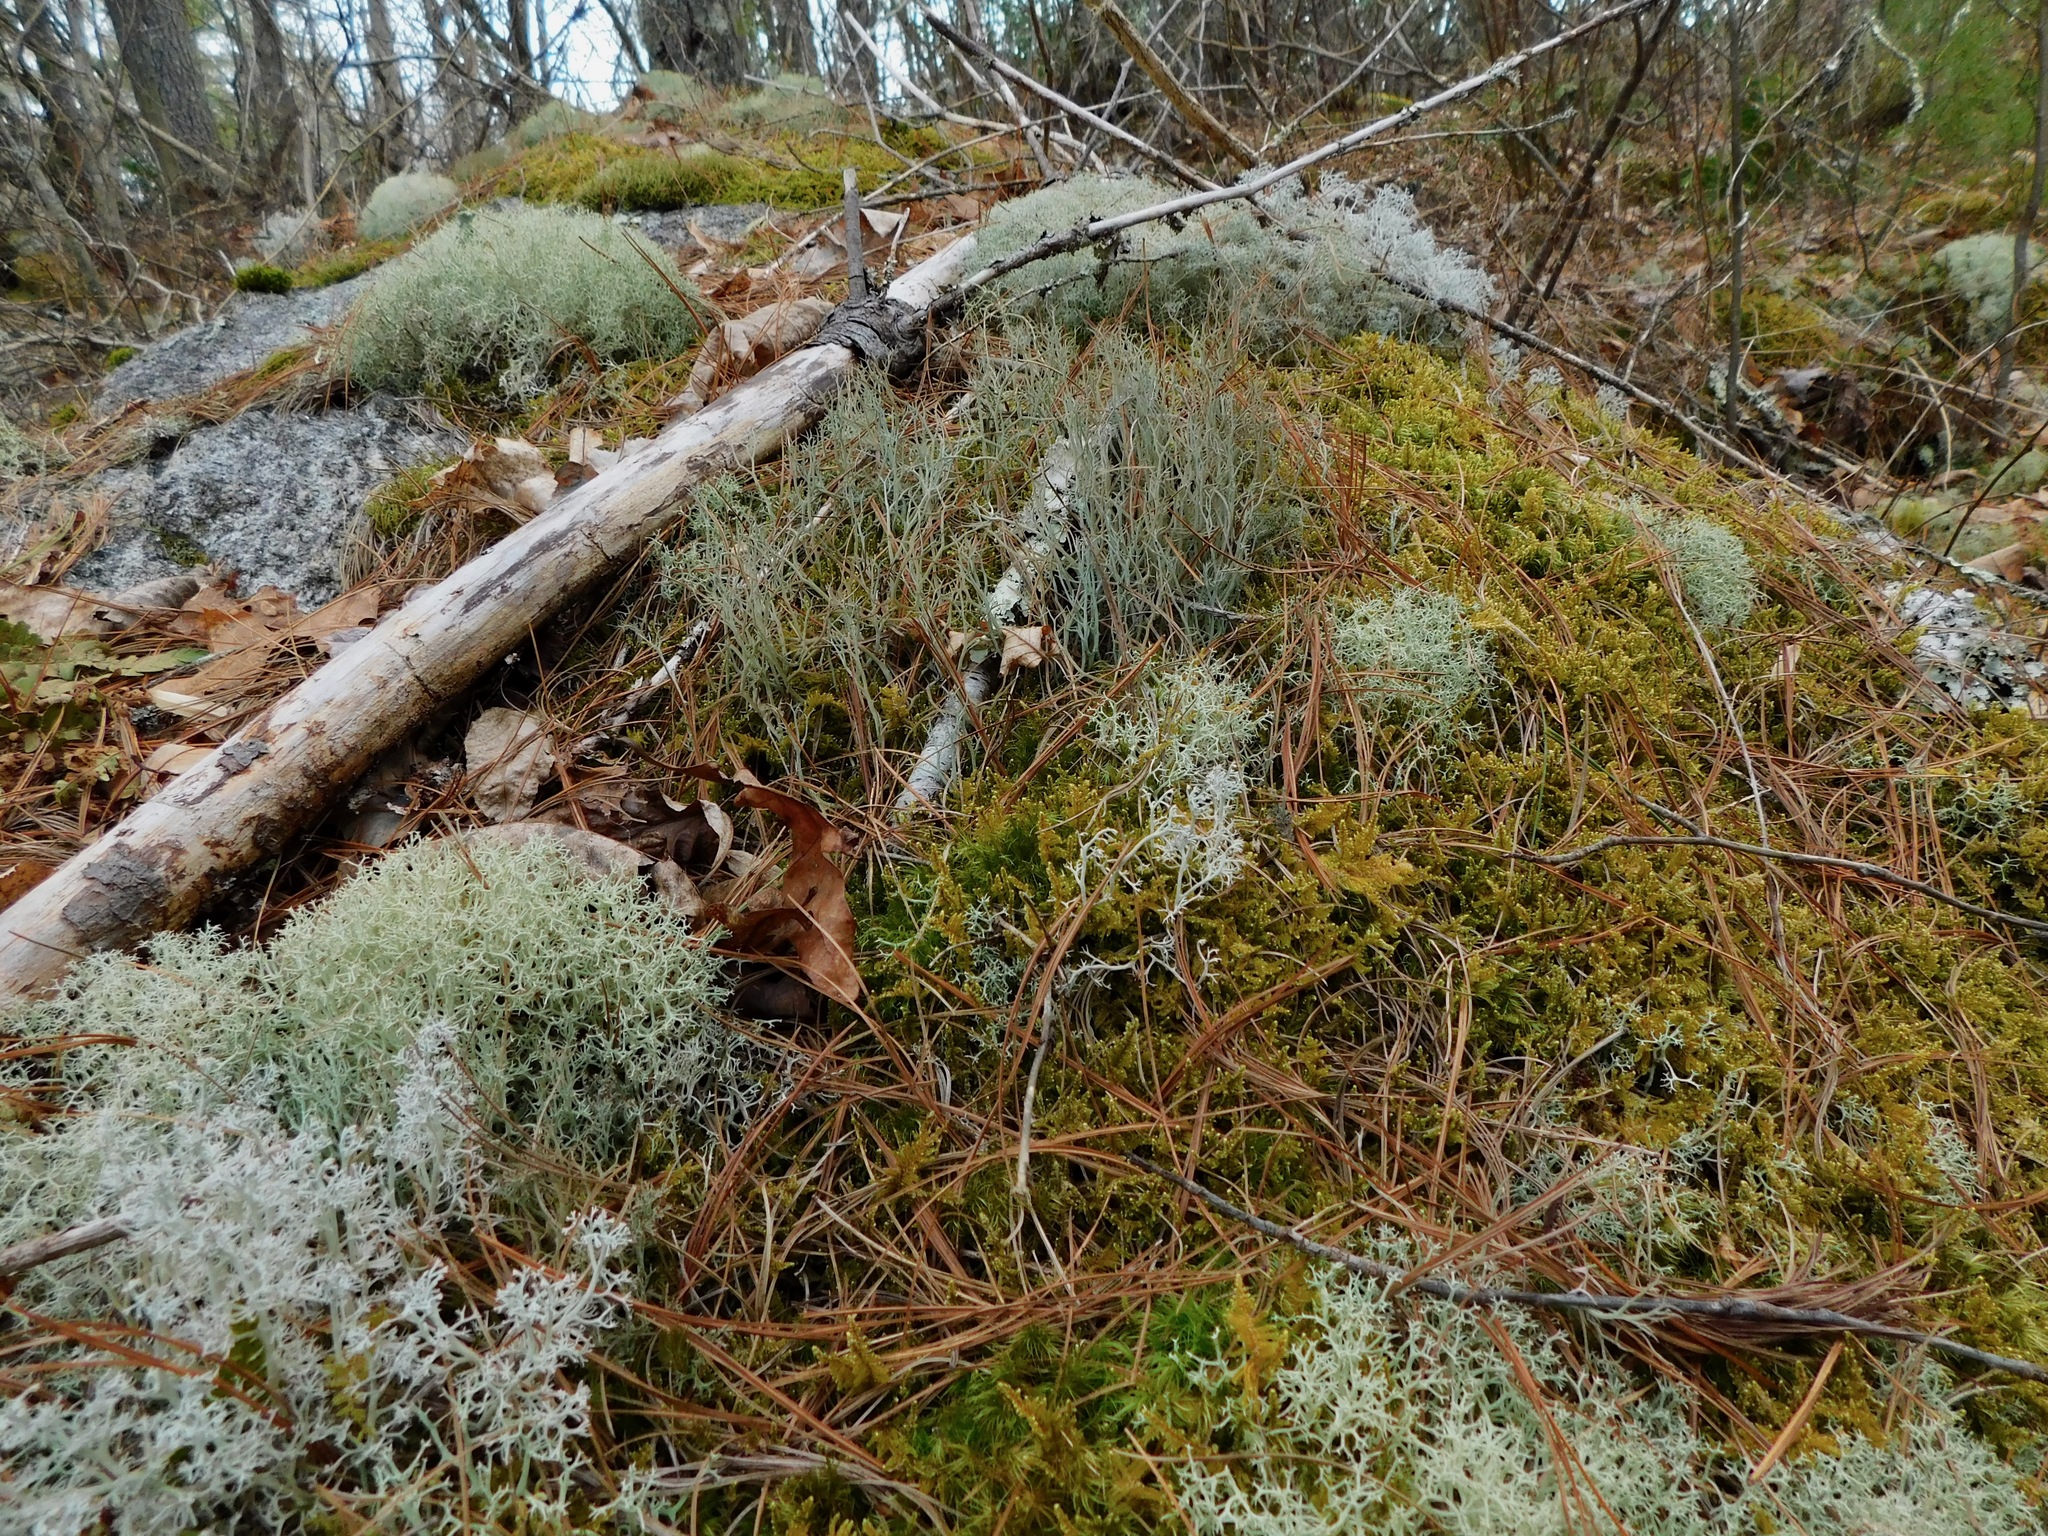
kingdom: Fungi
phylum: Ascomycota
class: Lecanoromycetes
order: Lecanorales
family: Cladoniaceae
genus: Cladonia
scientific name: Cladonia furcata
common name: Many-forked cladonia
